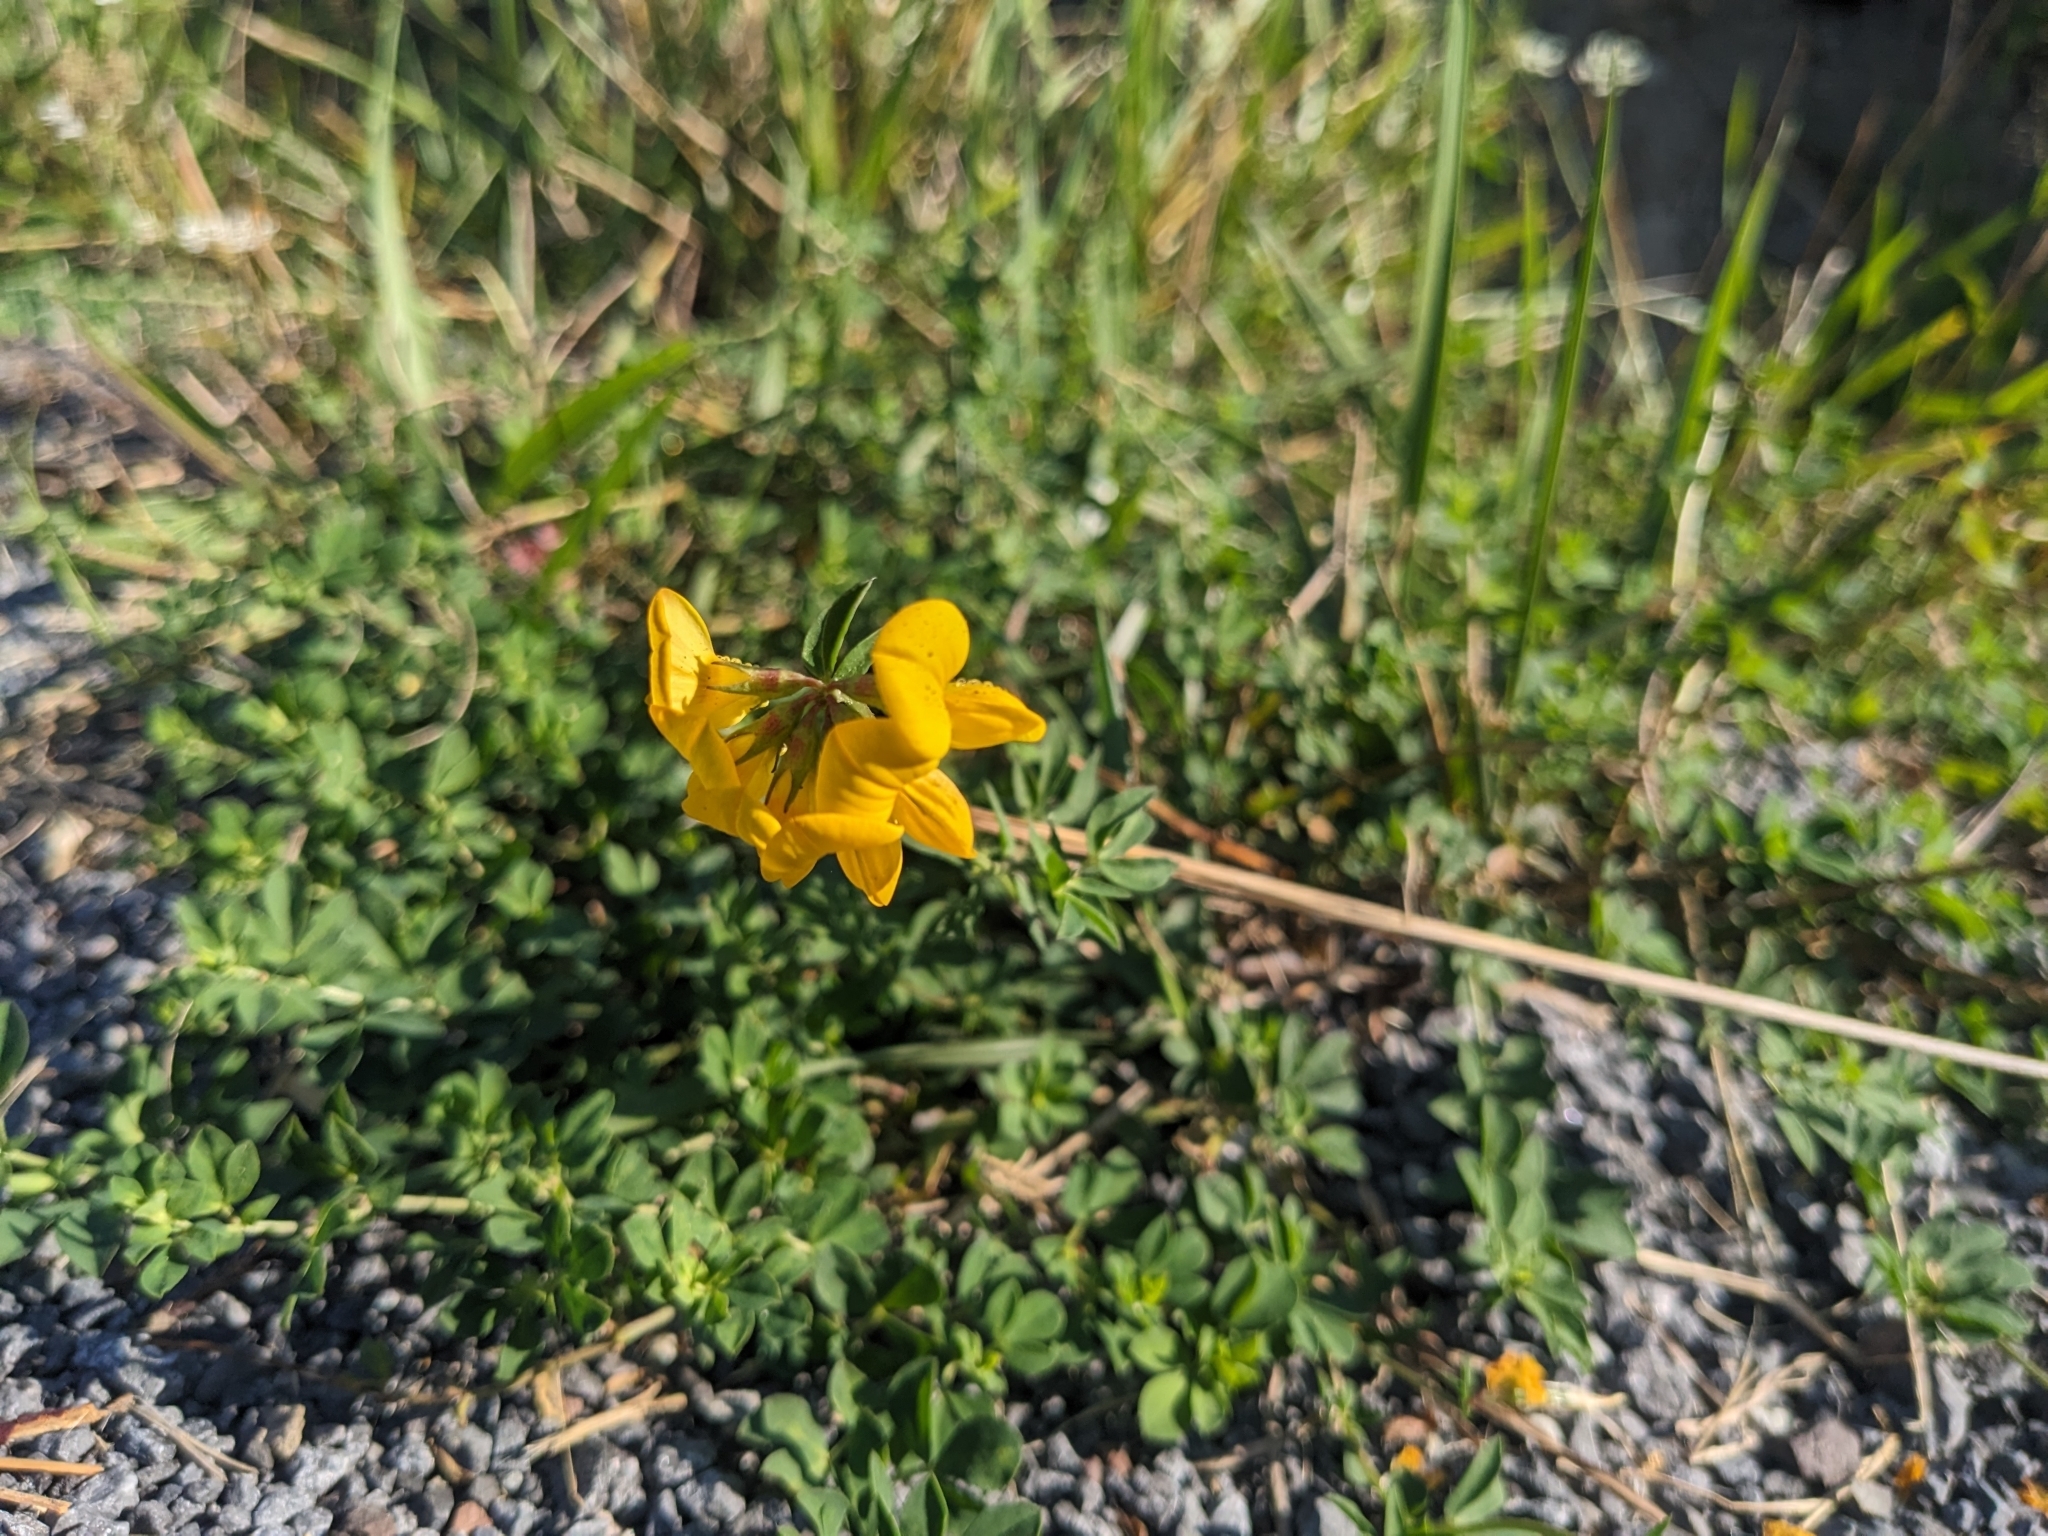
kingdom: Plantae
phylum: Tracheophyta
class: Magnoliopsida
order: Fabales
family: Fabaceae
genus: Lotus
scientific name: Lotus corniculatus
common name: Common bird's-foot-trefoil
